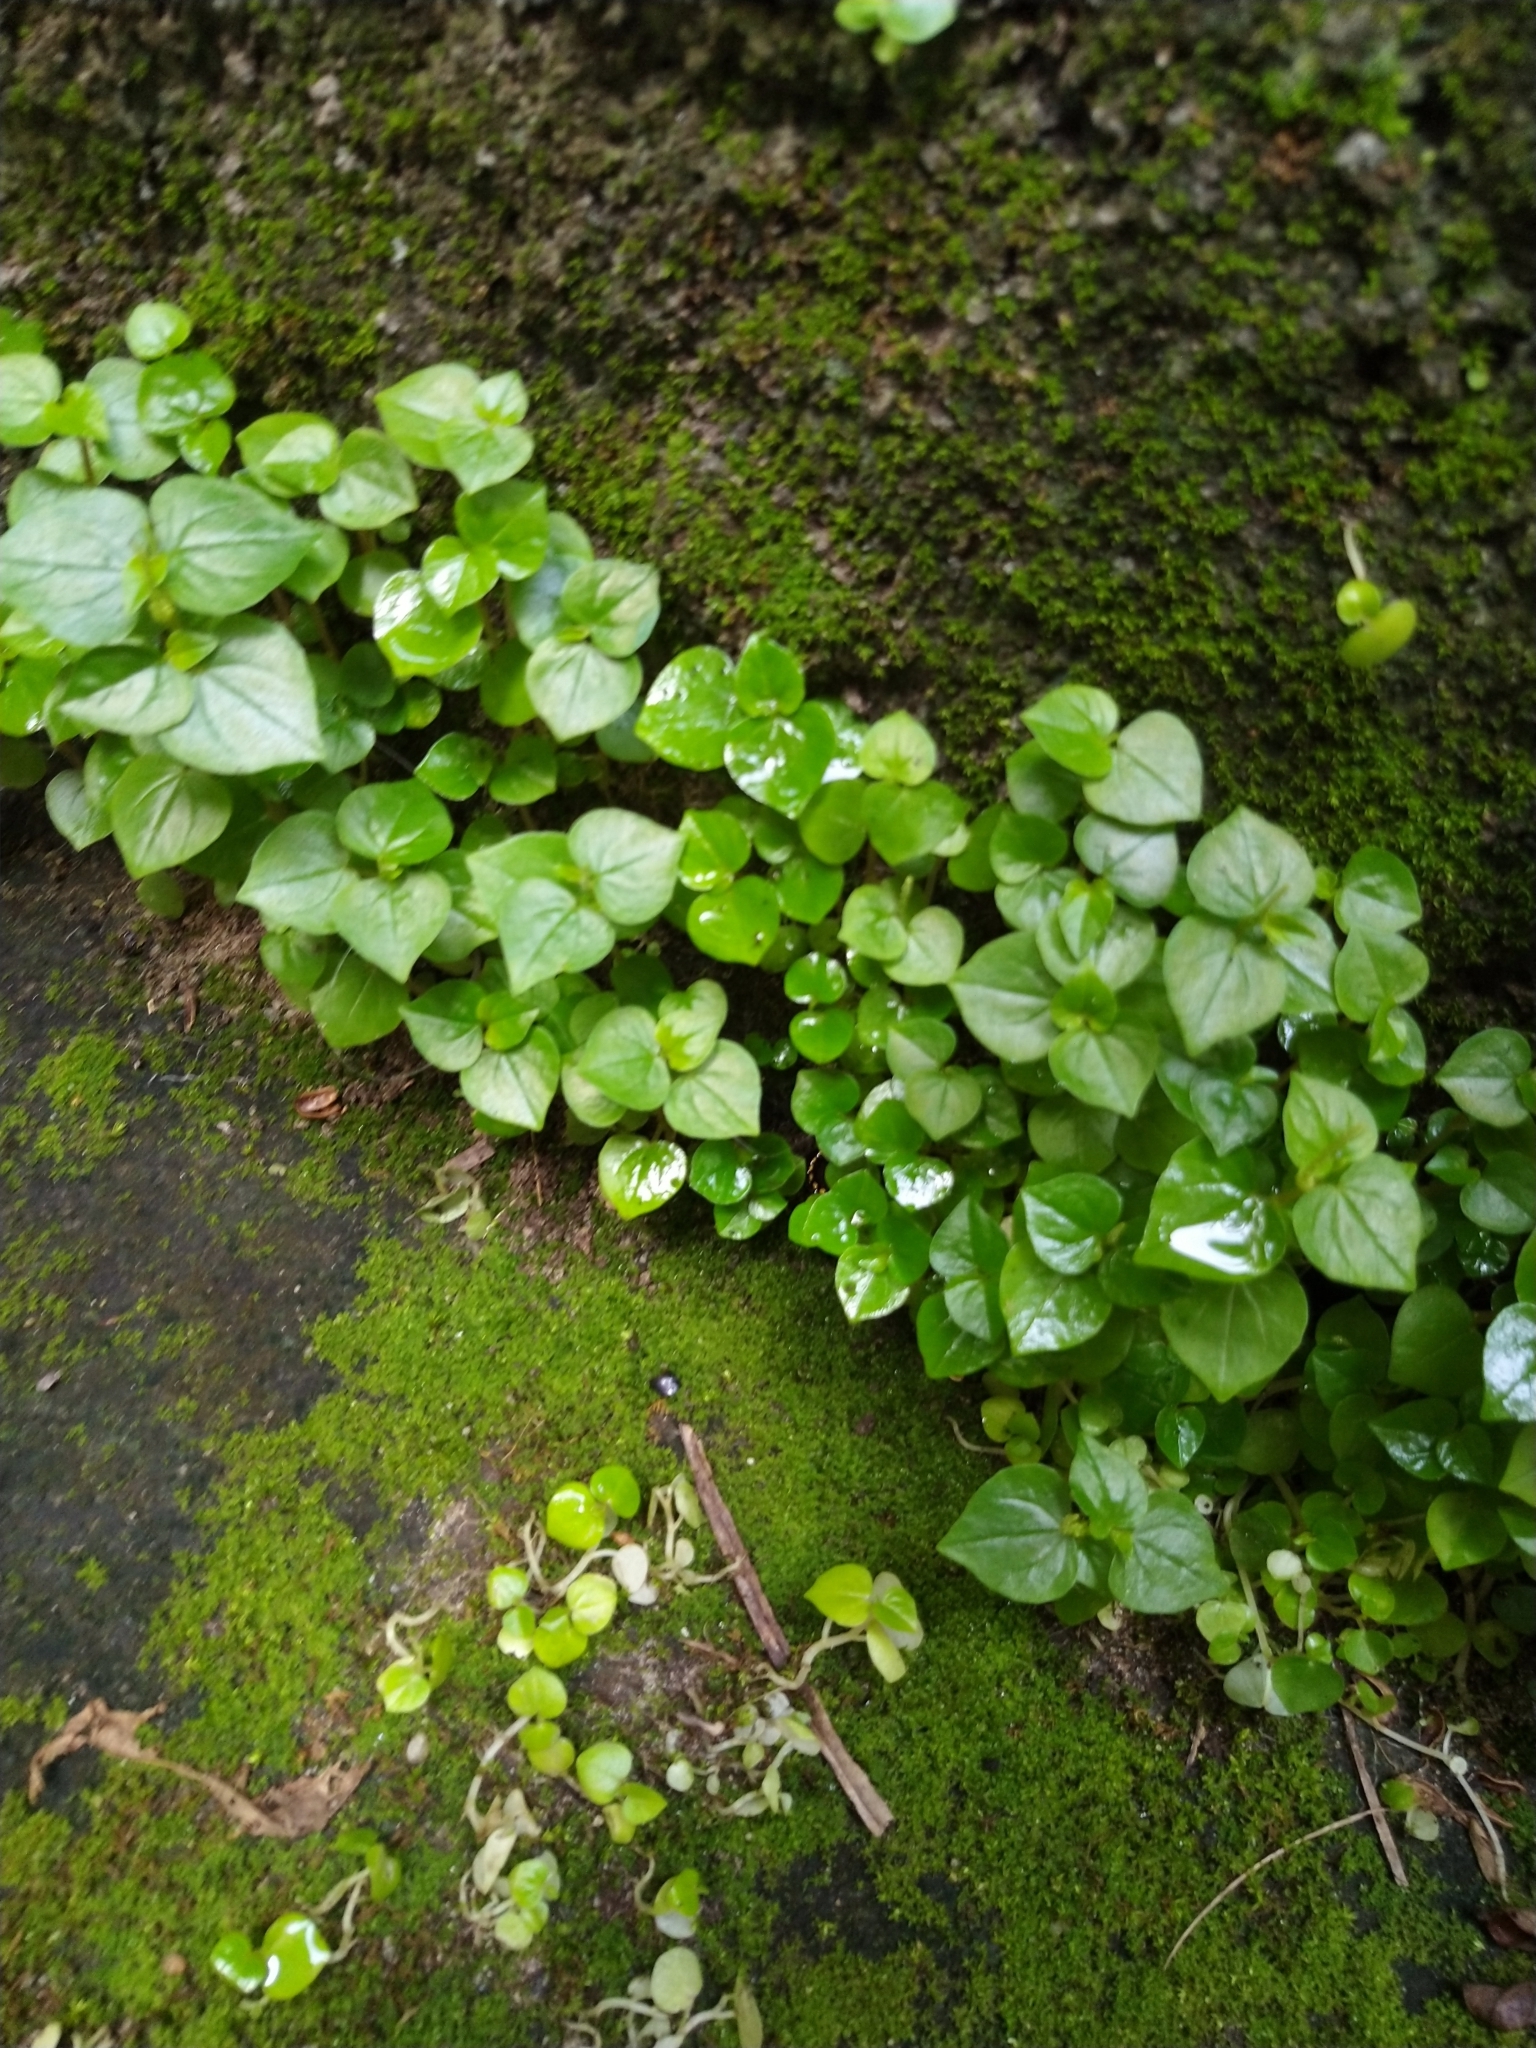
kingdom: Plantae
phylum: Tracheophyta
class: Magnoliopsida
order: Piperales
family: Piperaceae
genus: Peperomia
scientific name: Peperomia pellucida
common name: Man to man
